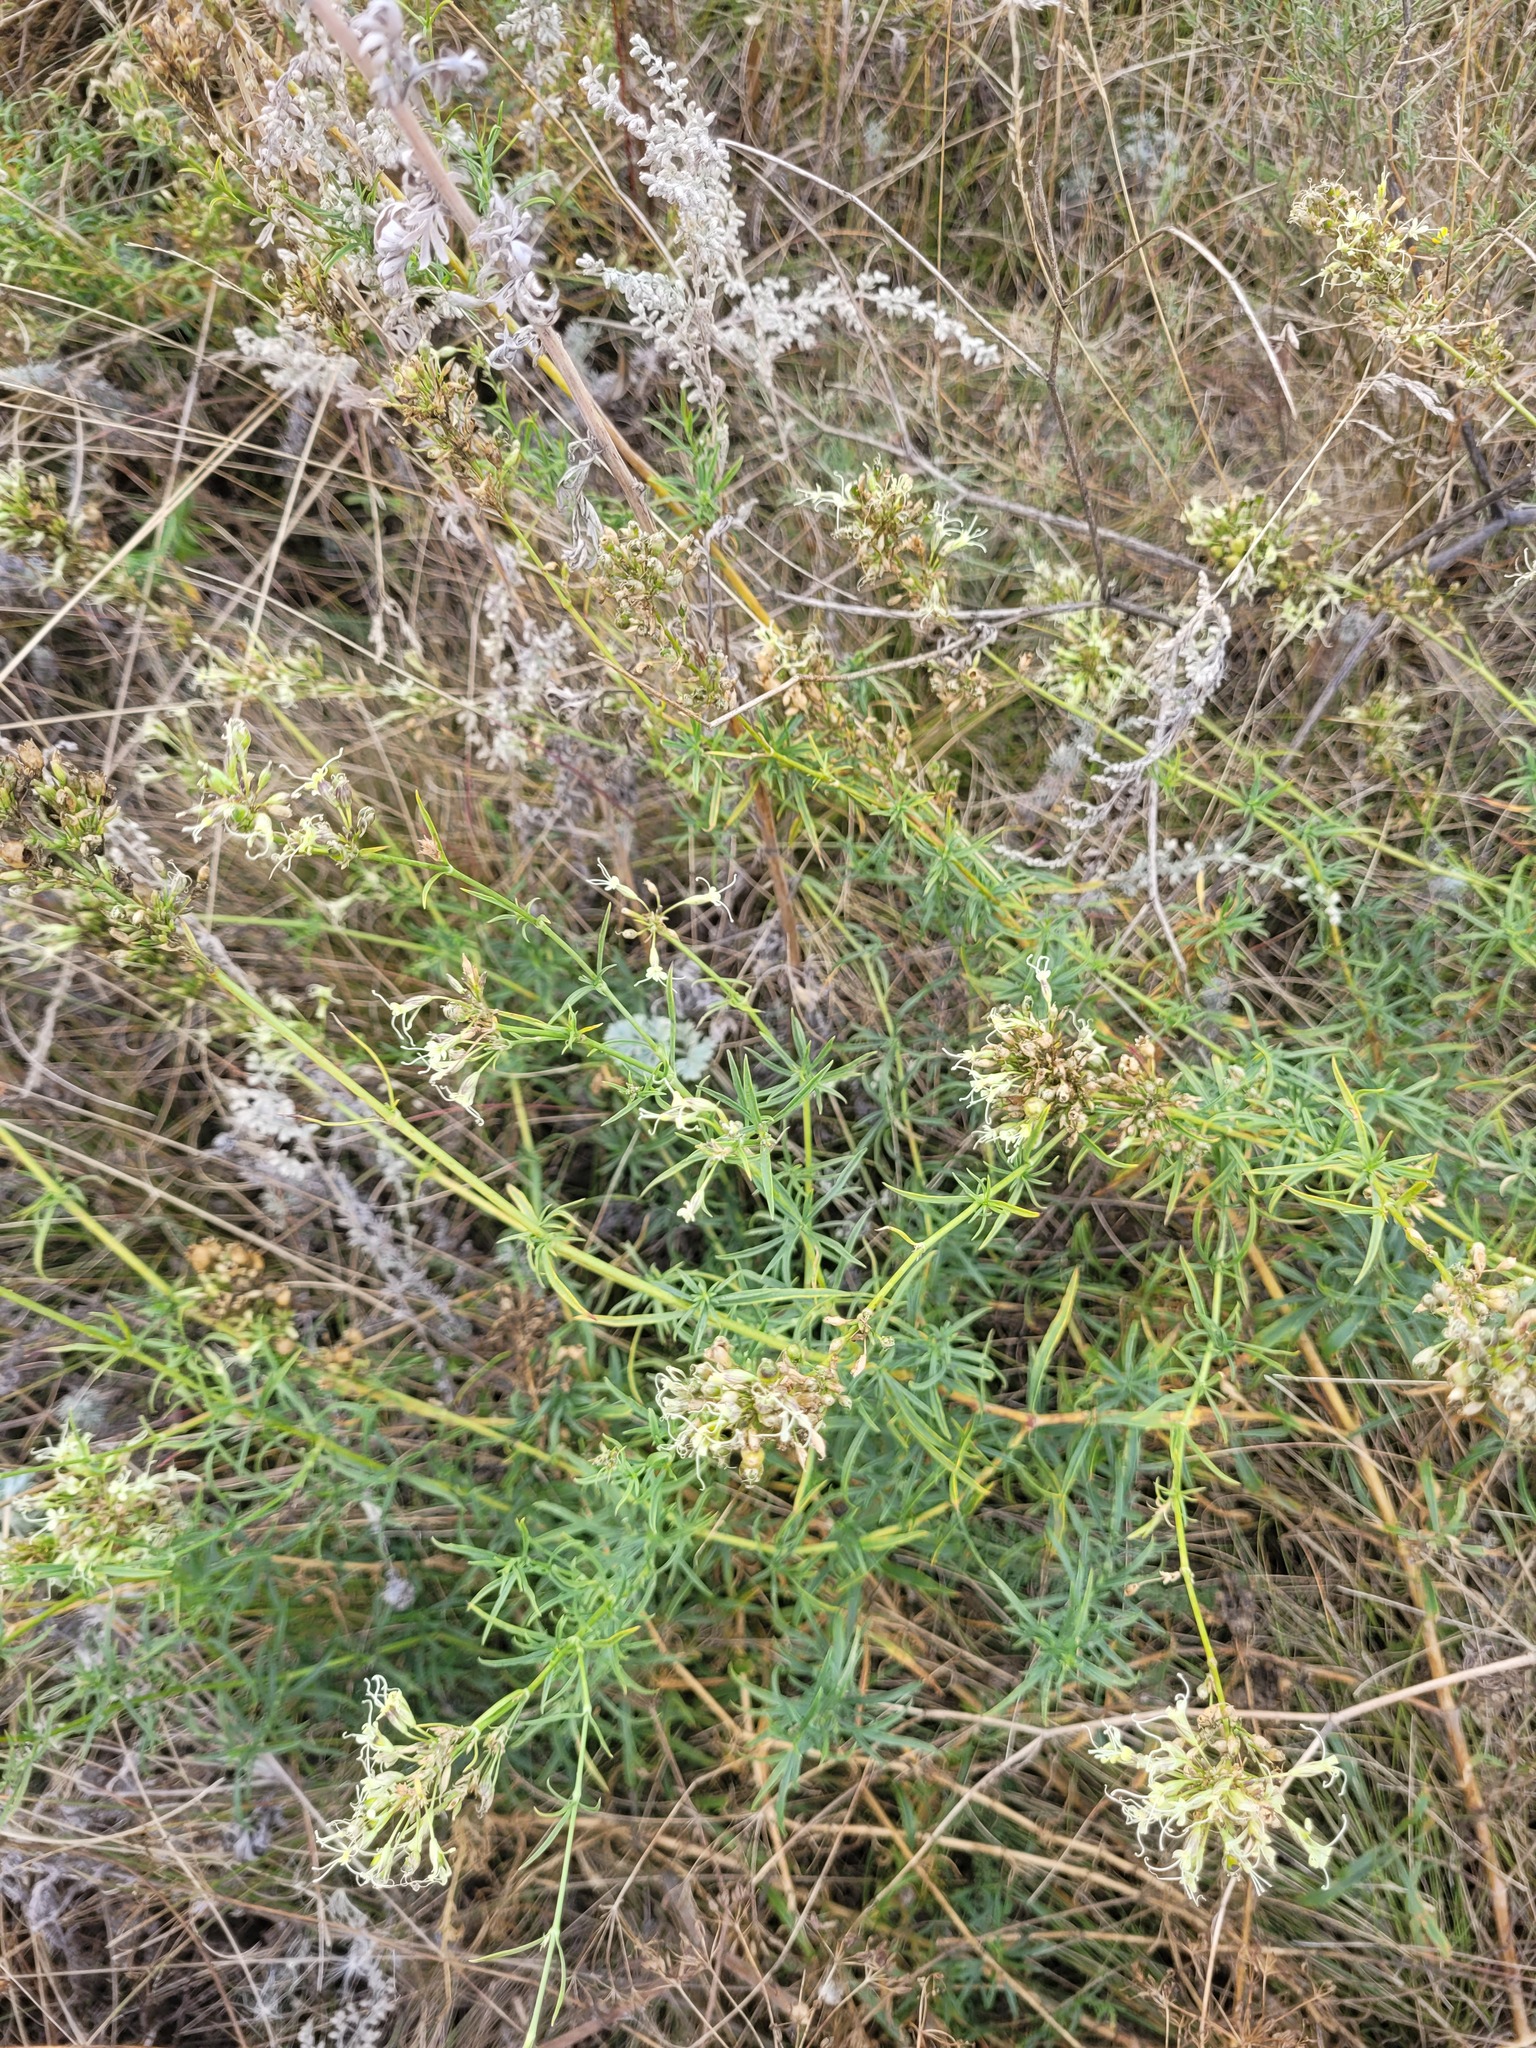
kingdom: Plantae
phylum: Tracheophyta
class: Magnoliopsida
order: Caryophyllales
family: Caryophyllaceae
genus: Silene
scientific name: Silene sibirica
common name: Siberian catchfly
